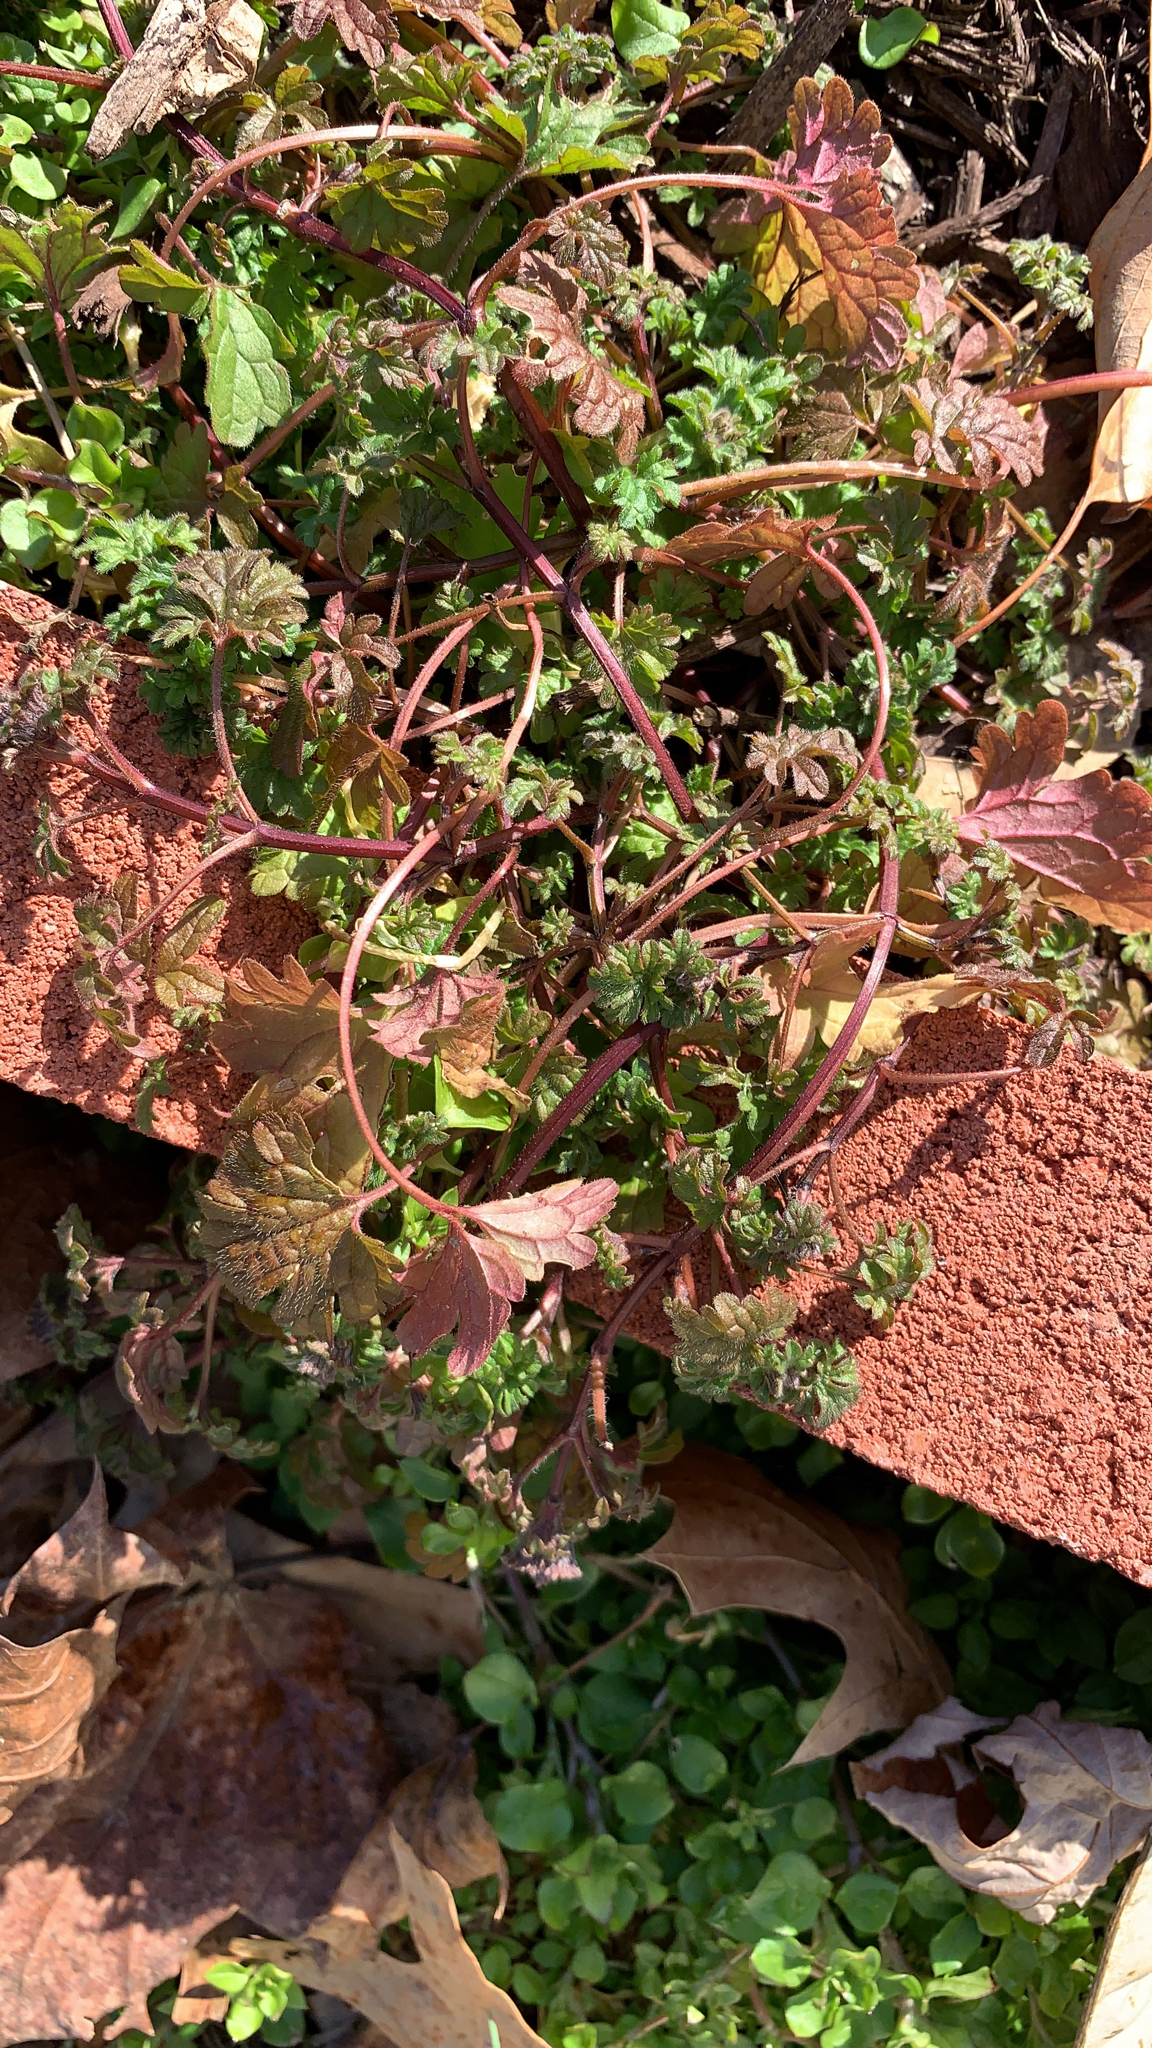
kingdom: Plantae
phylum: Tracheophyta
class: Magnoliopsida
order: Lamiales
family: Lamiaceae
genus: Lamium
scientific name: Lamium amplexicaule
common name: Henbit dead-nettle
